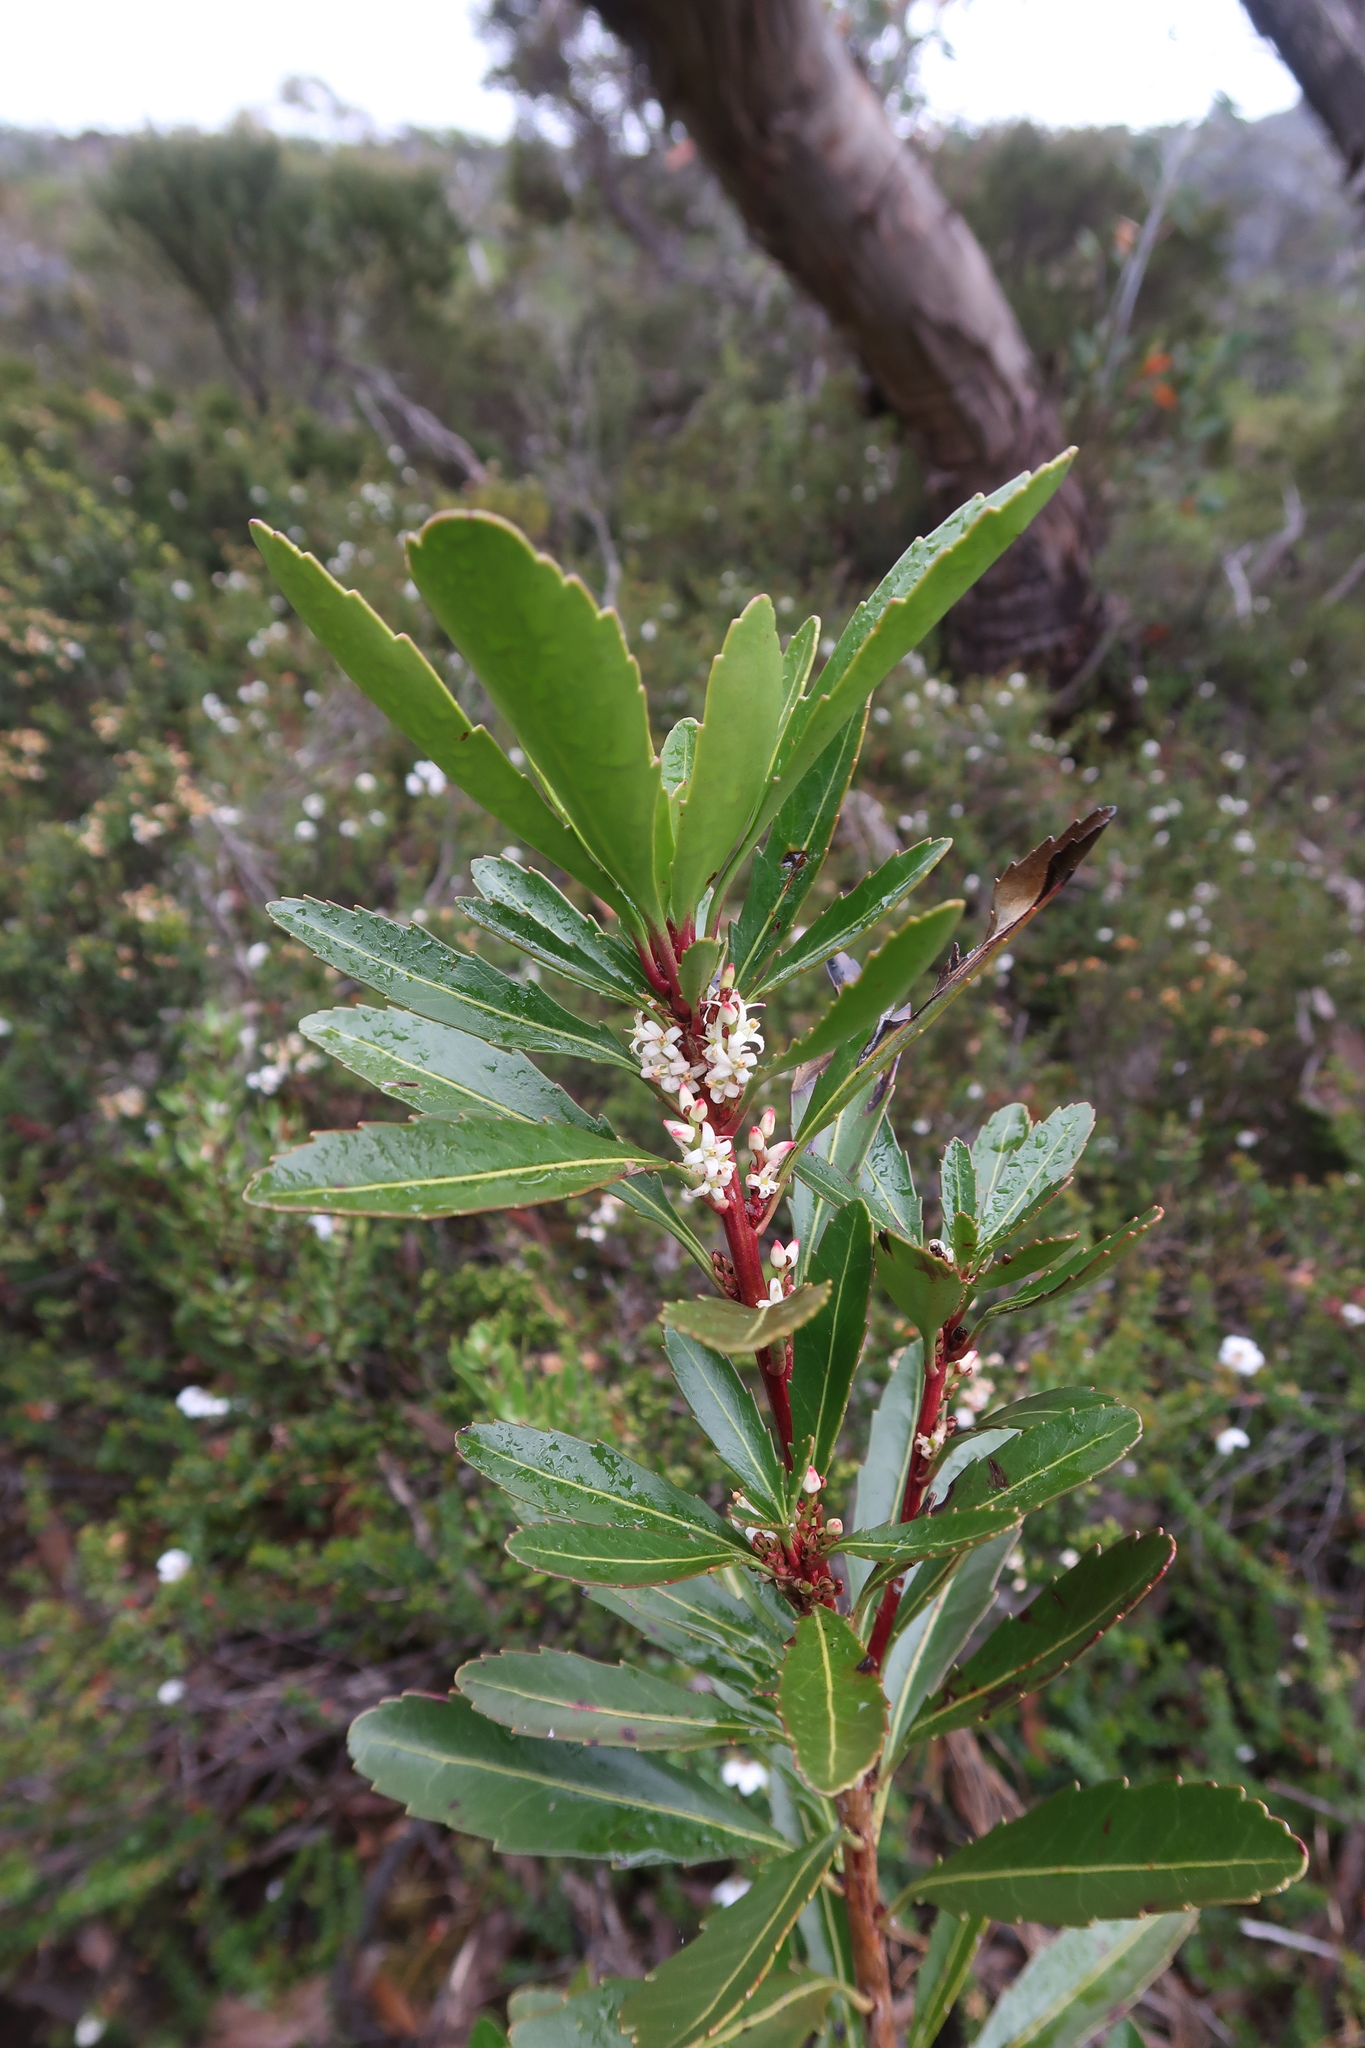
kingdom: Plantae
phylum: Tracheophyta
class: Magnoliopsida
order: Proteales
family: Proteaceae
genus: Cenarrhenes
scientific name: Cenarrhenes nitida
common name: Native plum
